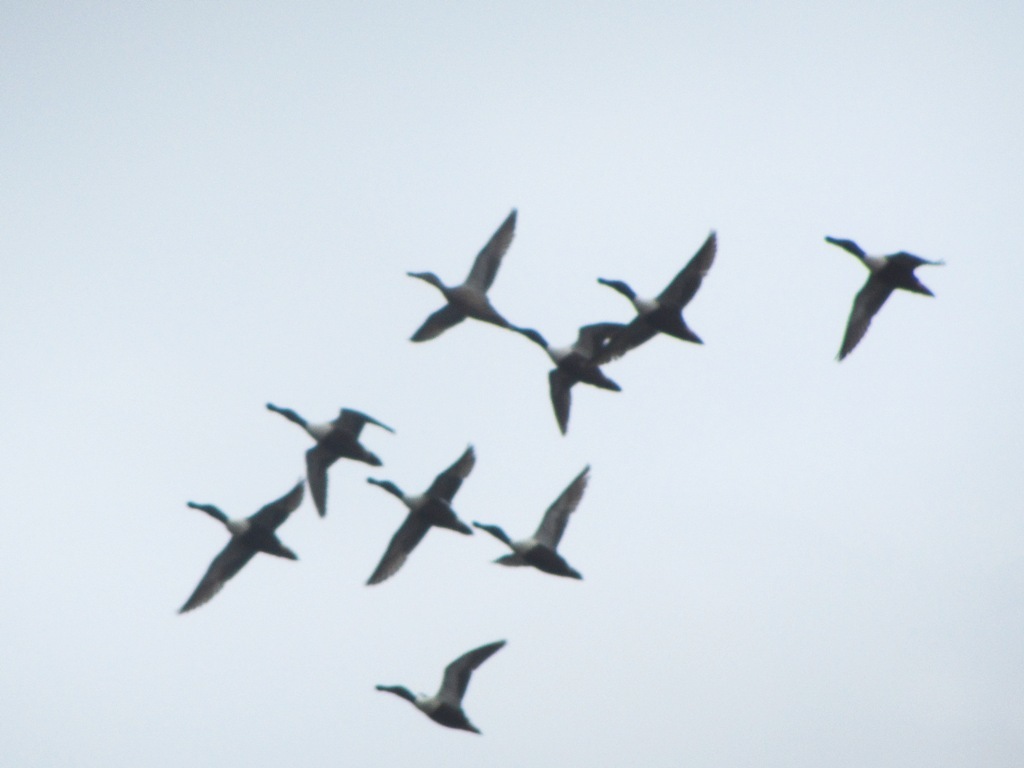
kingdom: Animalia
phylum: Chordata
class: Aves
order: Anseriformes
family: Anatidae
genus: Spatula
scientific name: Spatula clypeata
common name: Northern shoveler
